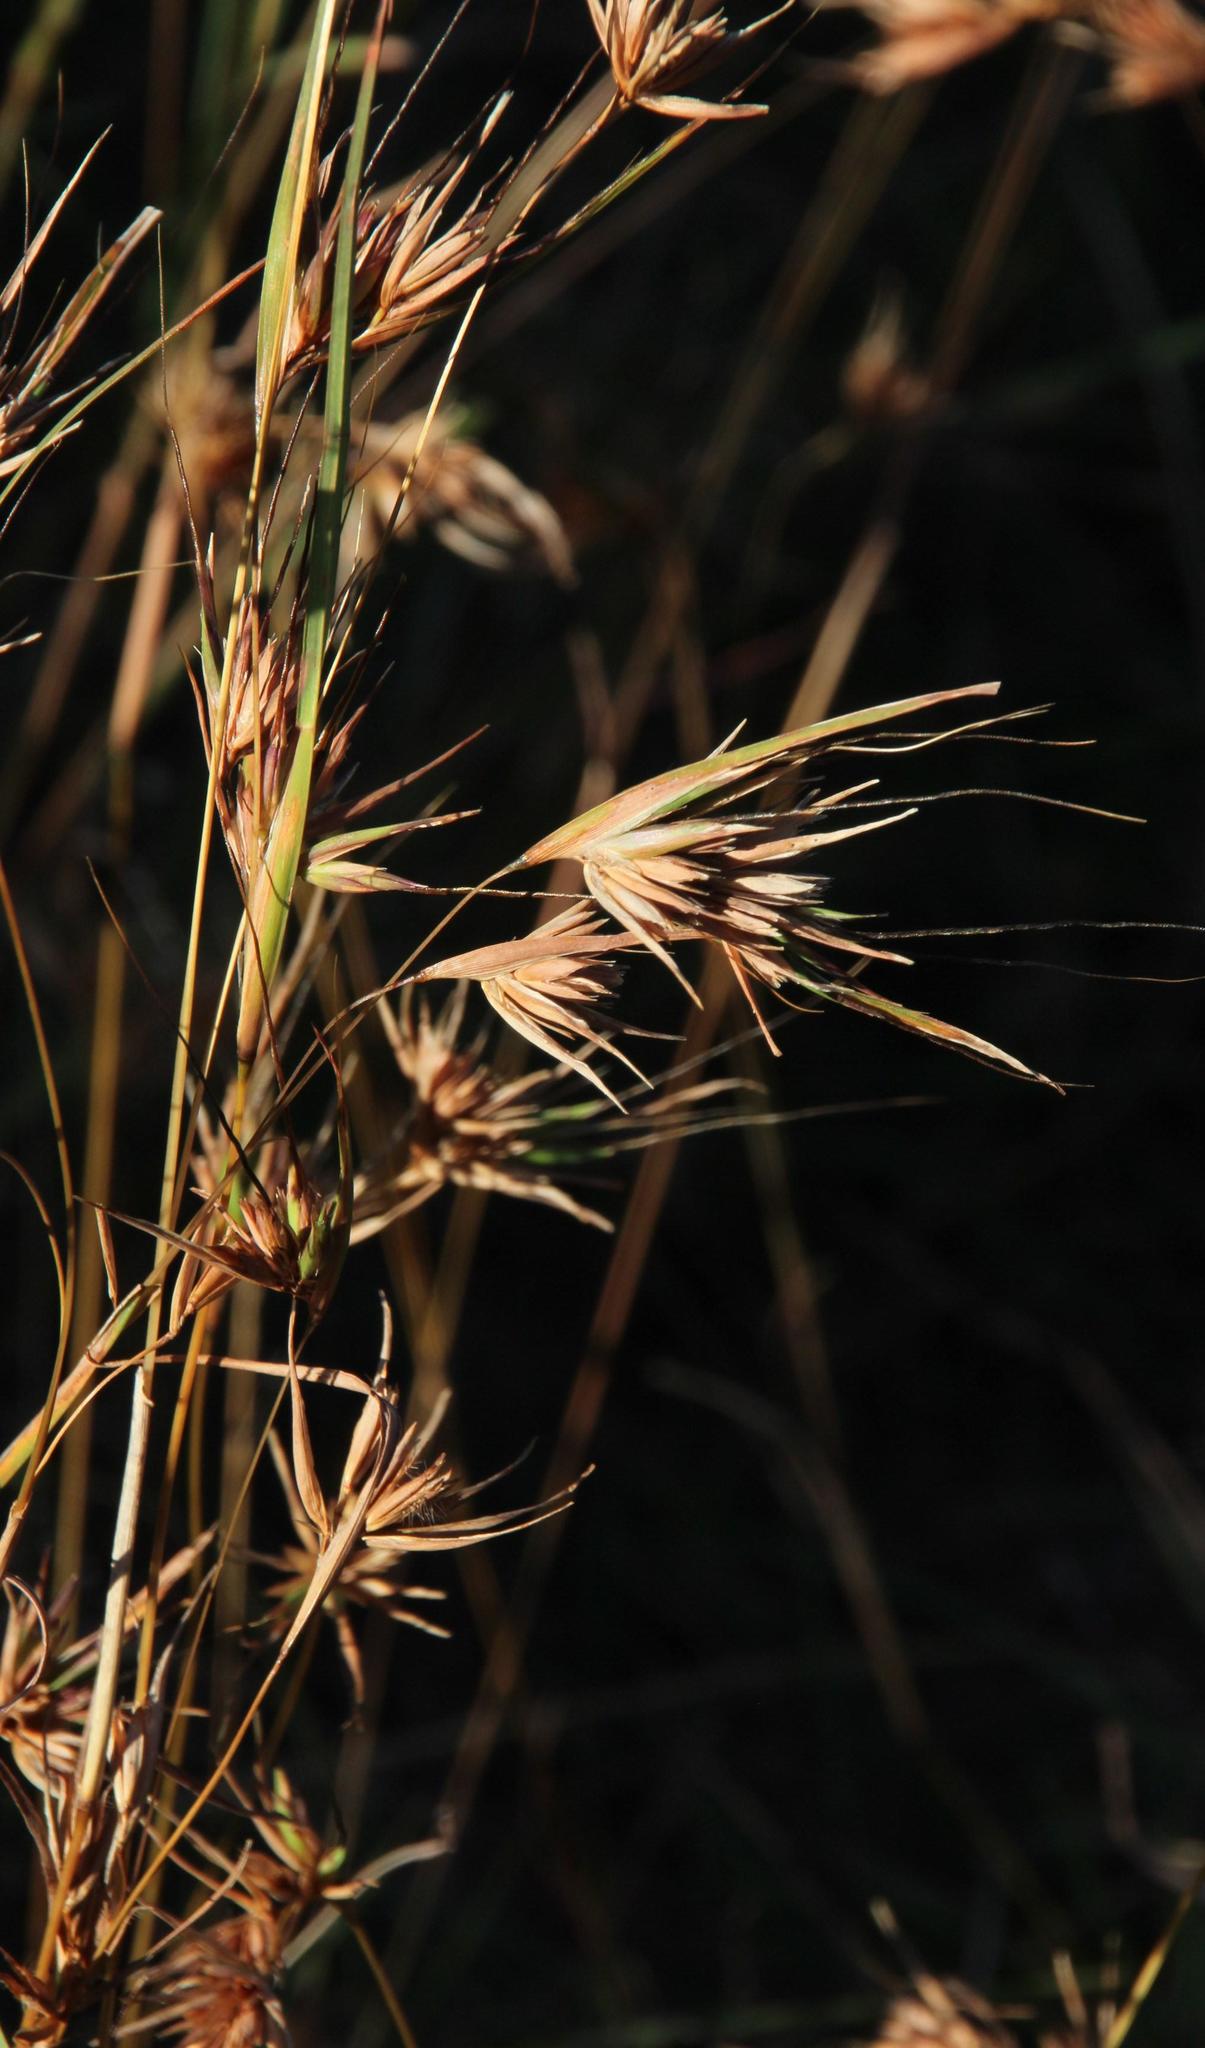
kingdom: Plantae
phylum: Tracheophyta
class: Liliopsida
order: Poales
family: Poaceae
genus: Themeda
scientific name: Themeda triandra
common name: Kangaroo grass
